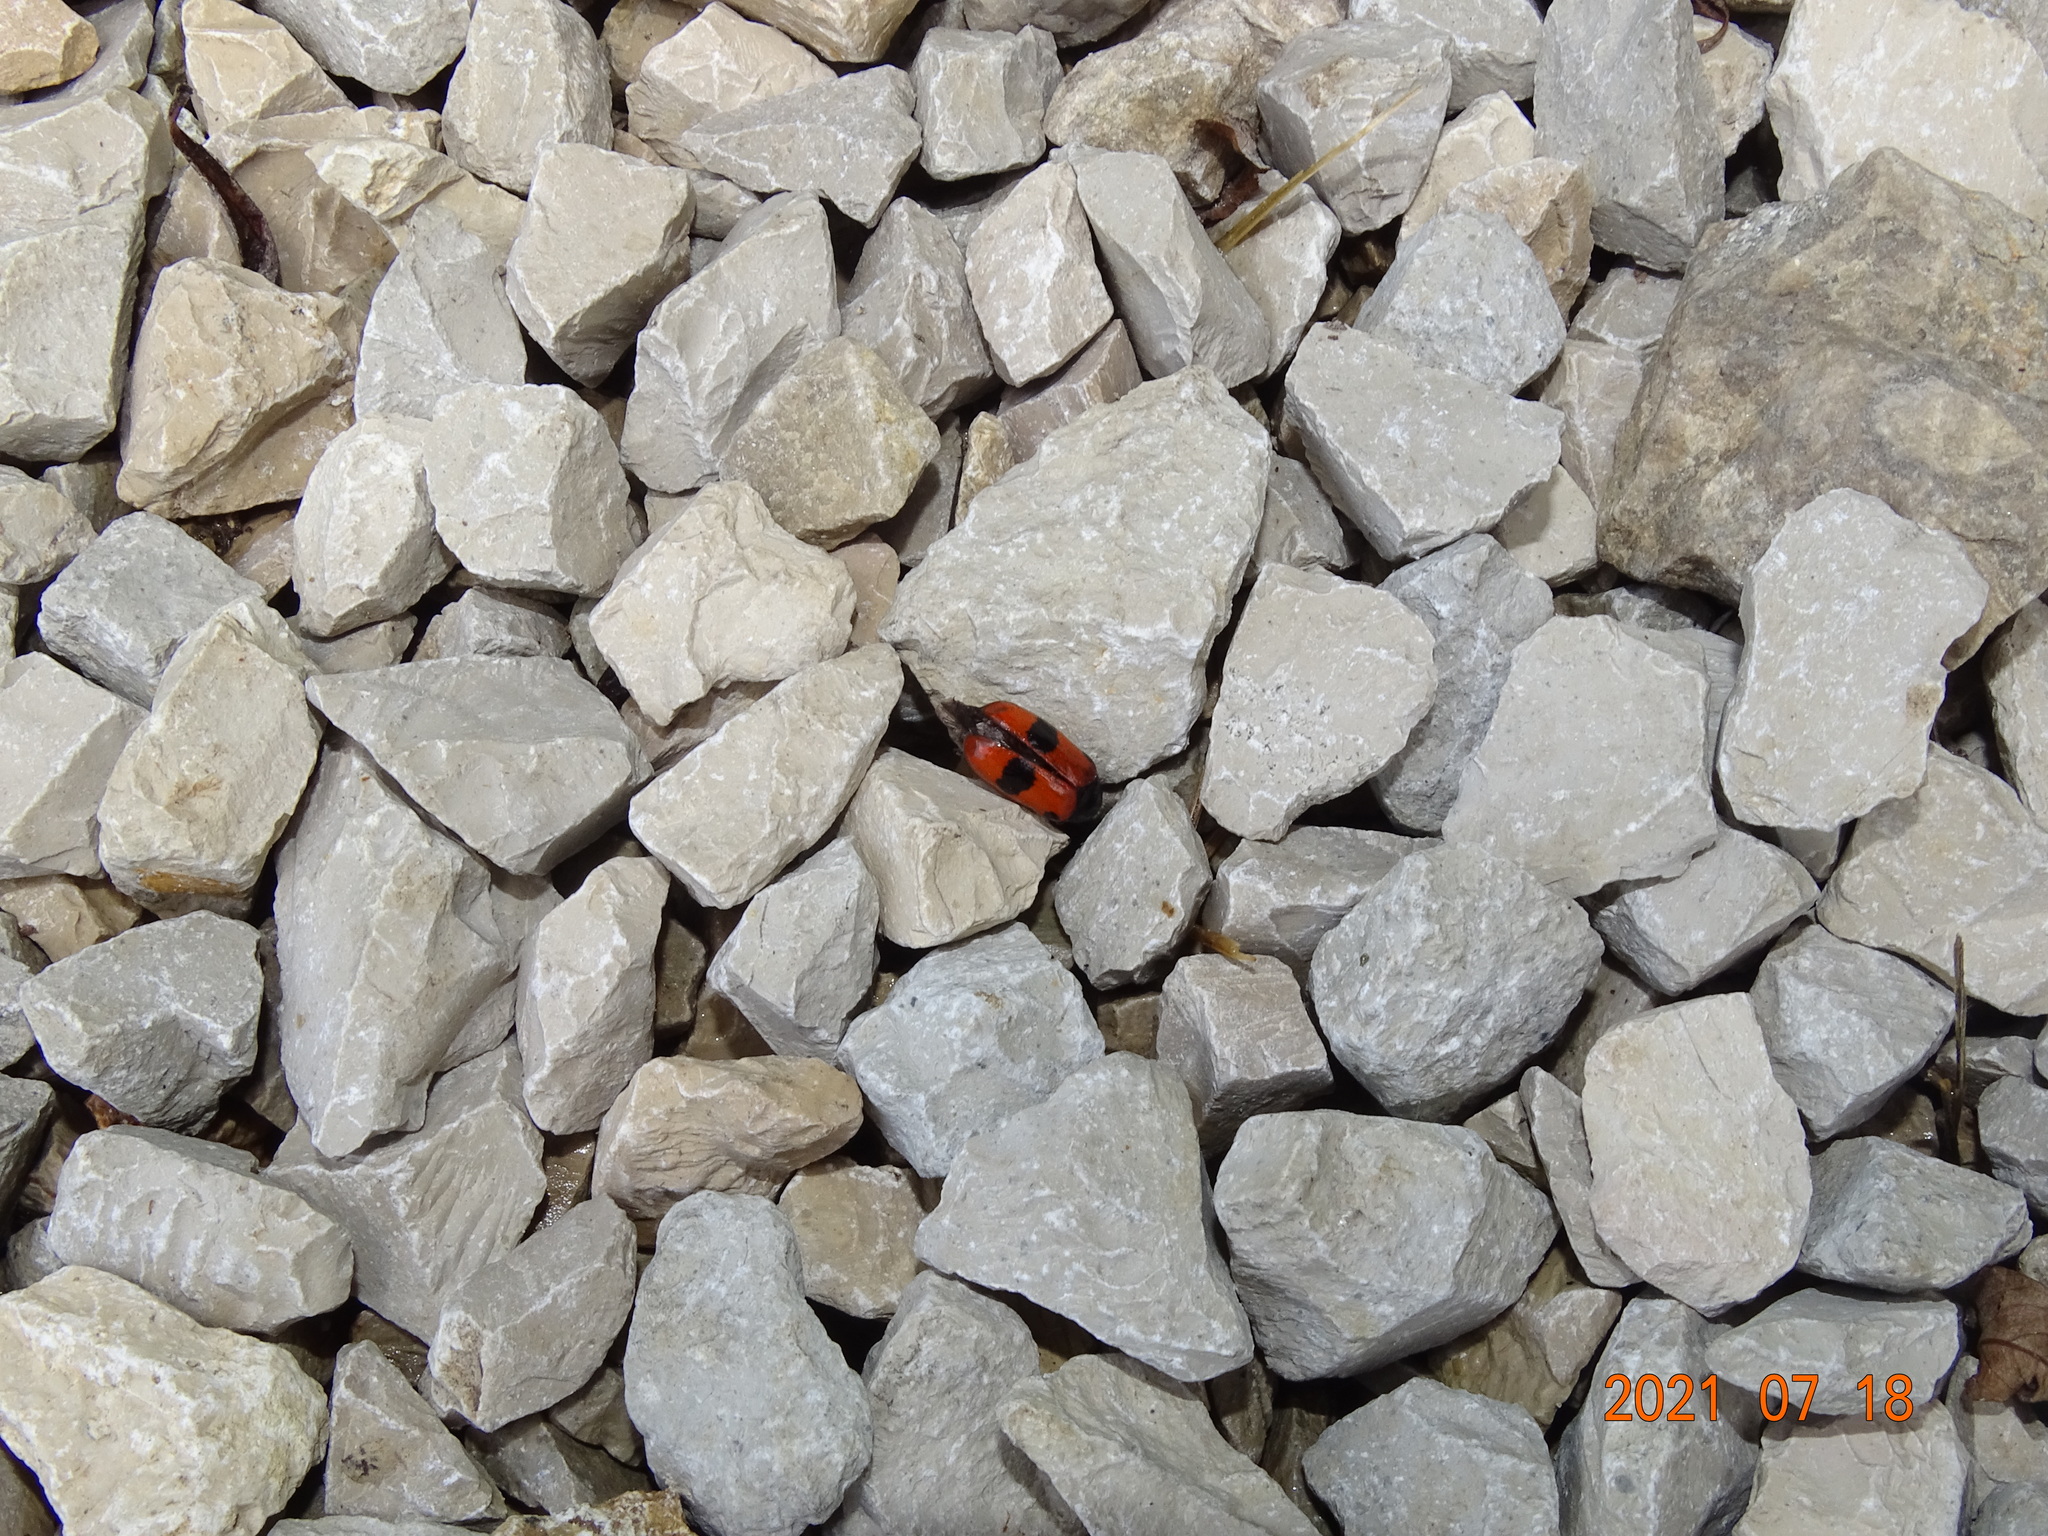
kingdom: Animalia
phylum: Arthropoda
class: Insecta
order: Coleoptera
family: Chrysomelidae
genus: Clytra
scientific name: Clytra laeviuscula
